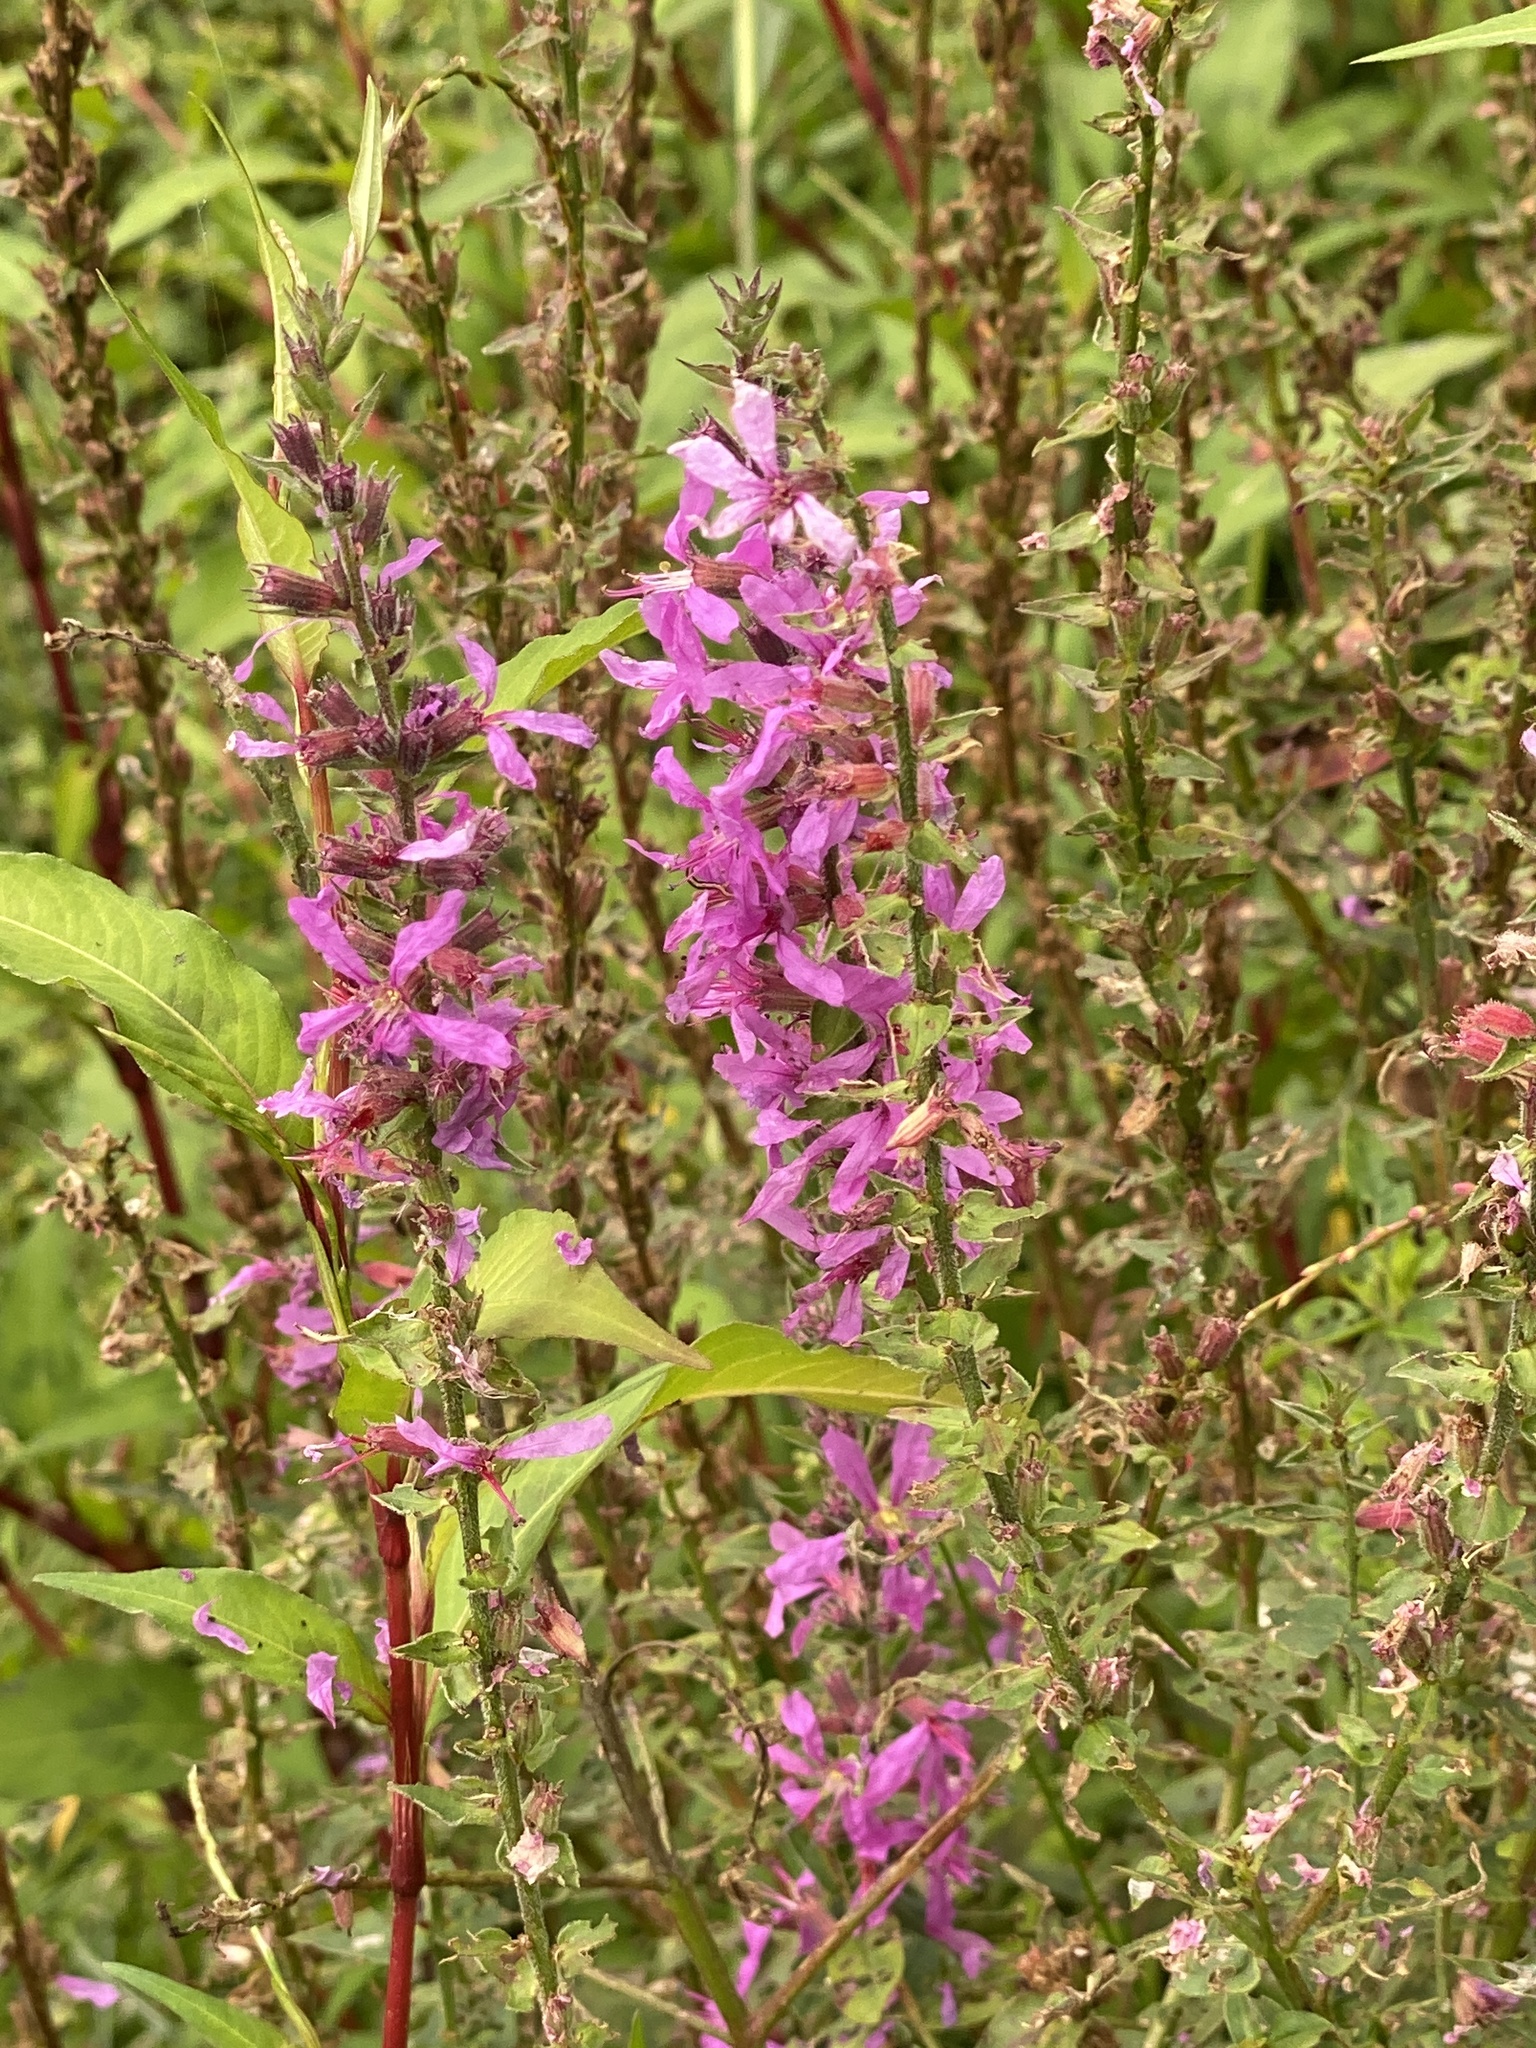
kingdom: Plantae
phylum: Tracheophyta
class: Magnoliopsida
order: Myrtales
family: Lythraceae
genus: Lythrum
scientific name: Lythrum salicaria
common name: Purple loosestrife
